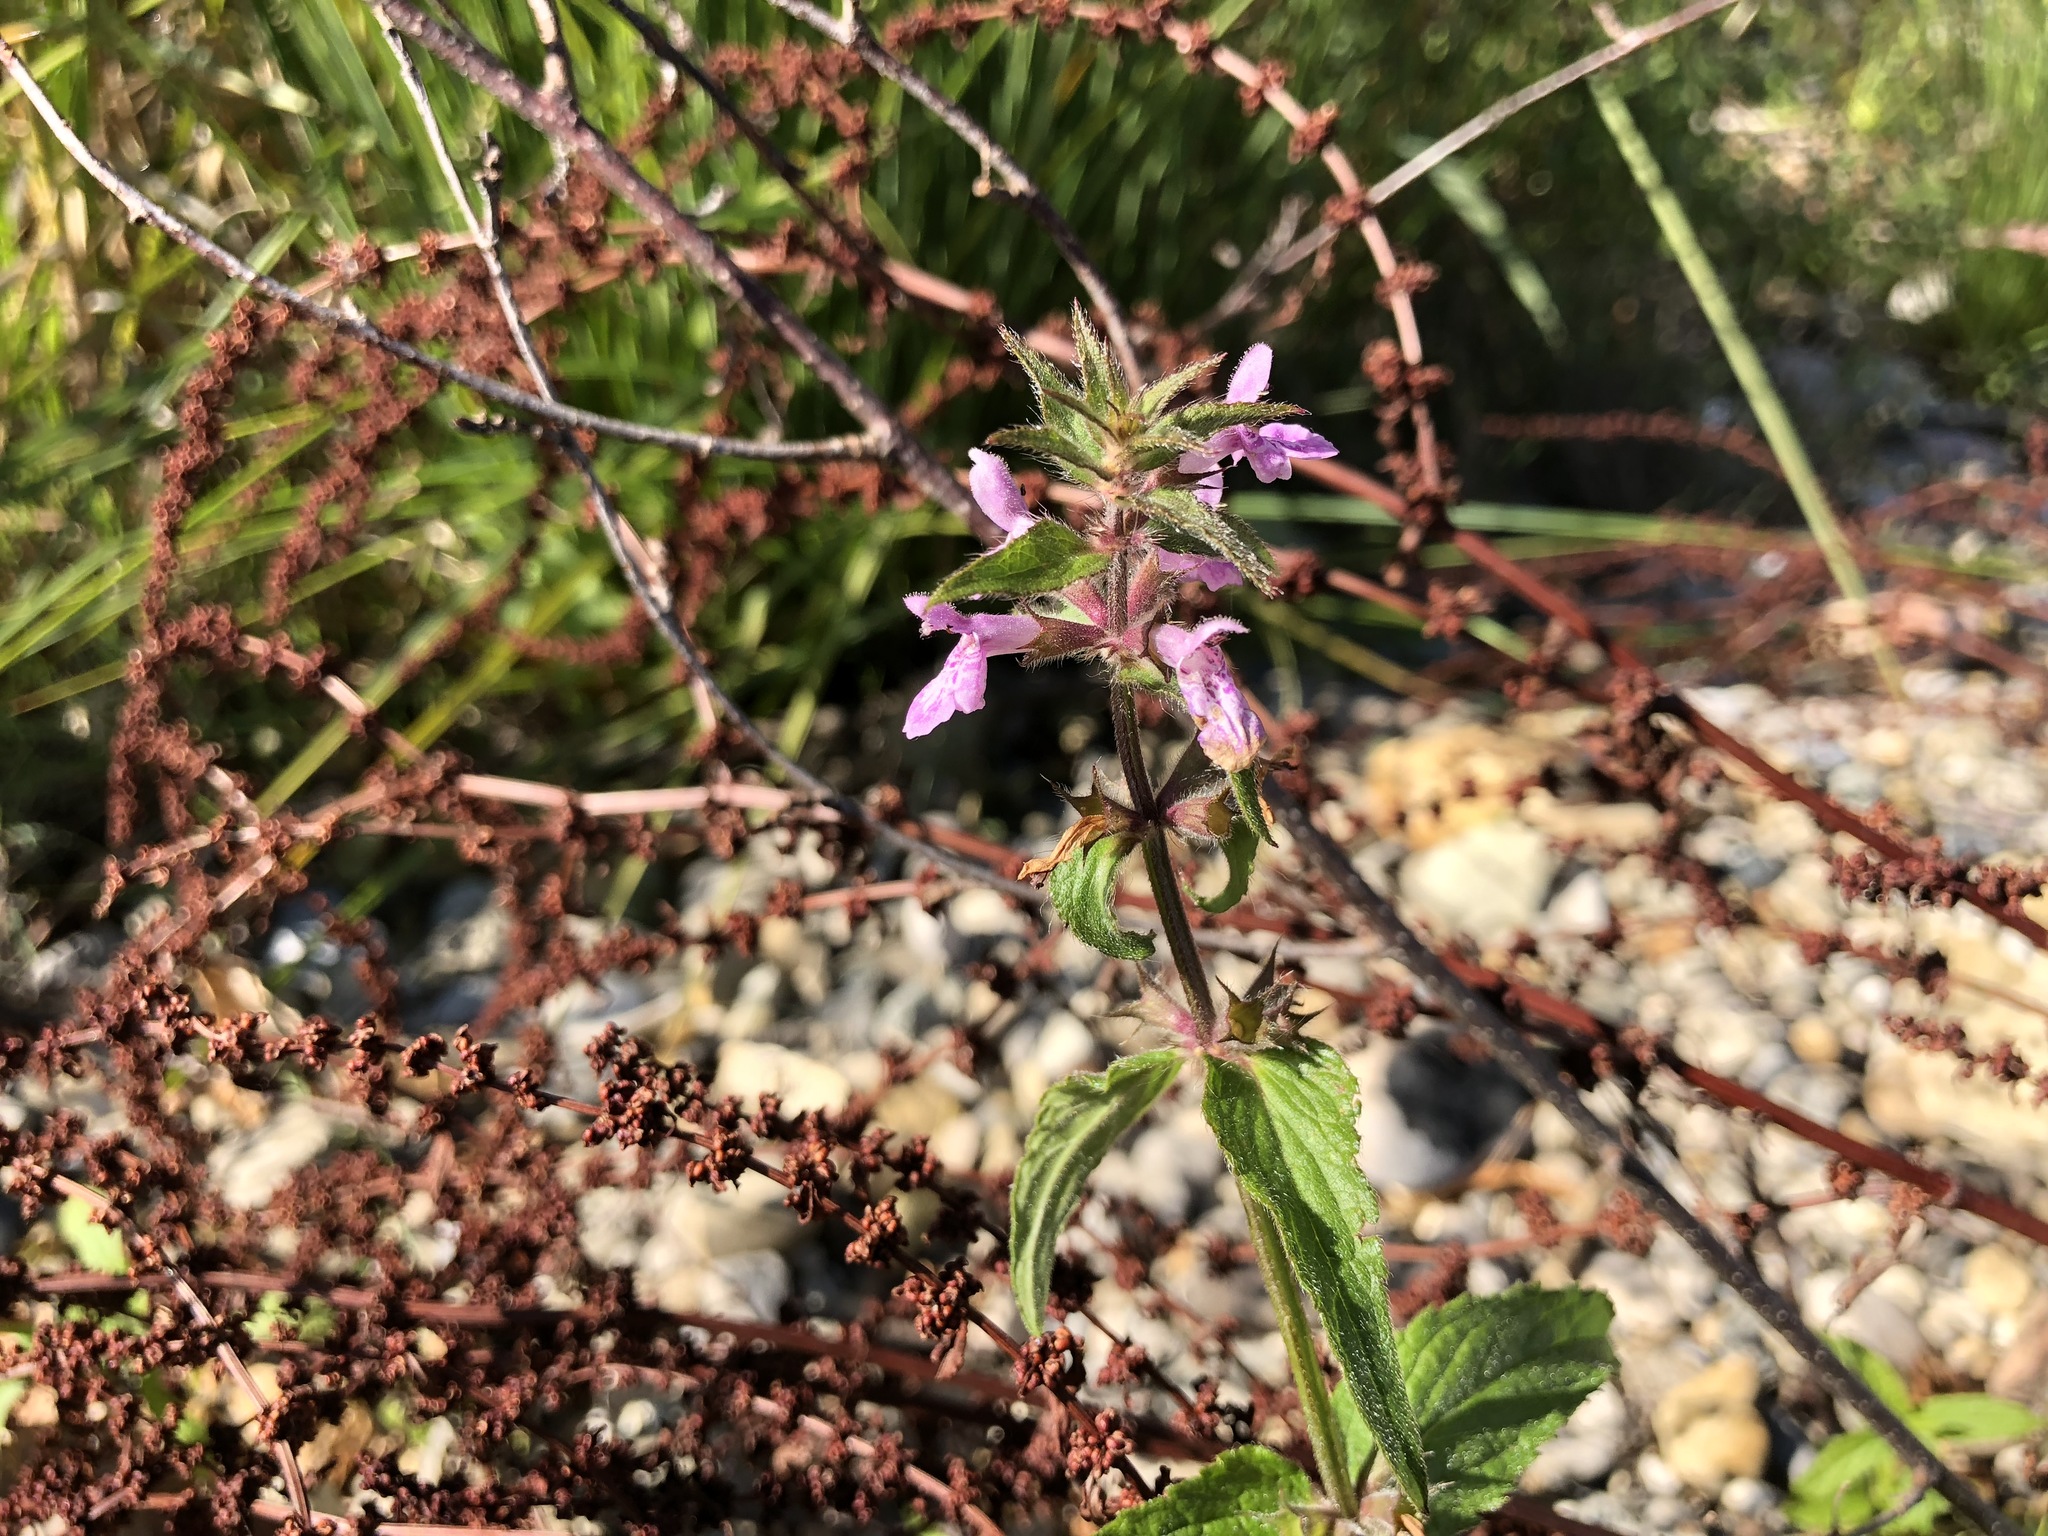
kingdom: Plantae
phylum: Tracheophyta
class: Magnoliopsida
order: Lamiales
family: Lamiaceae
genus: Stachys
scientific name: Stachys palustris
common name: Marsh woundwort
